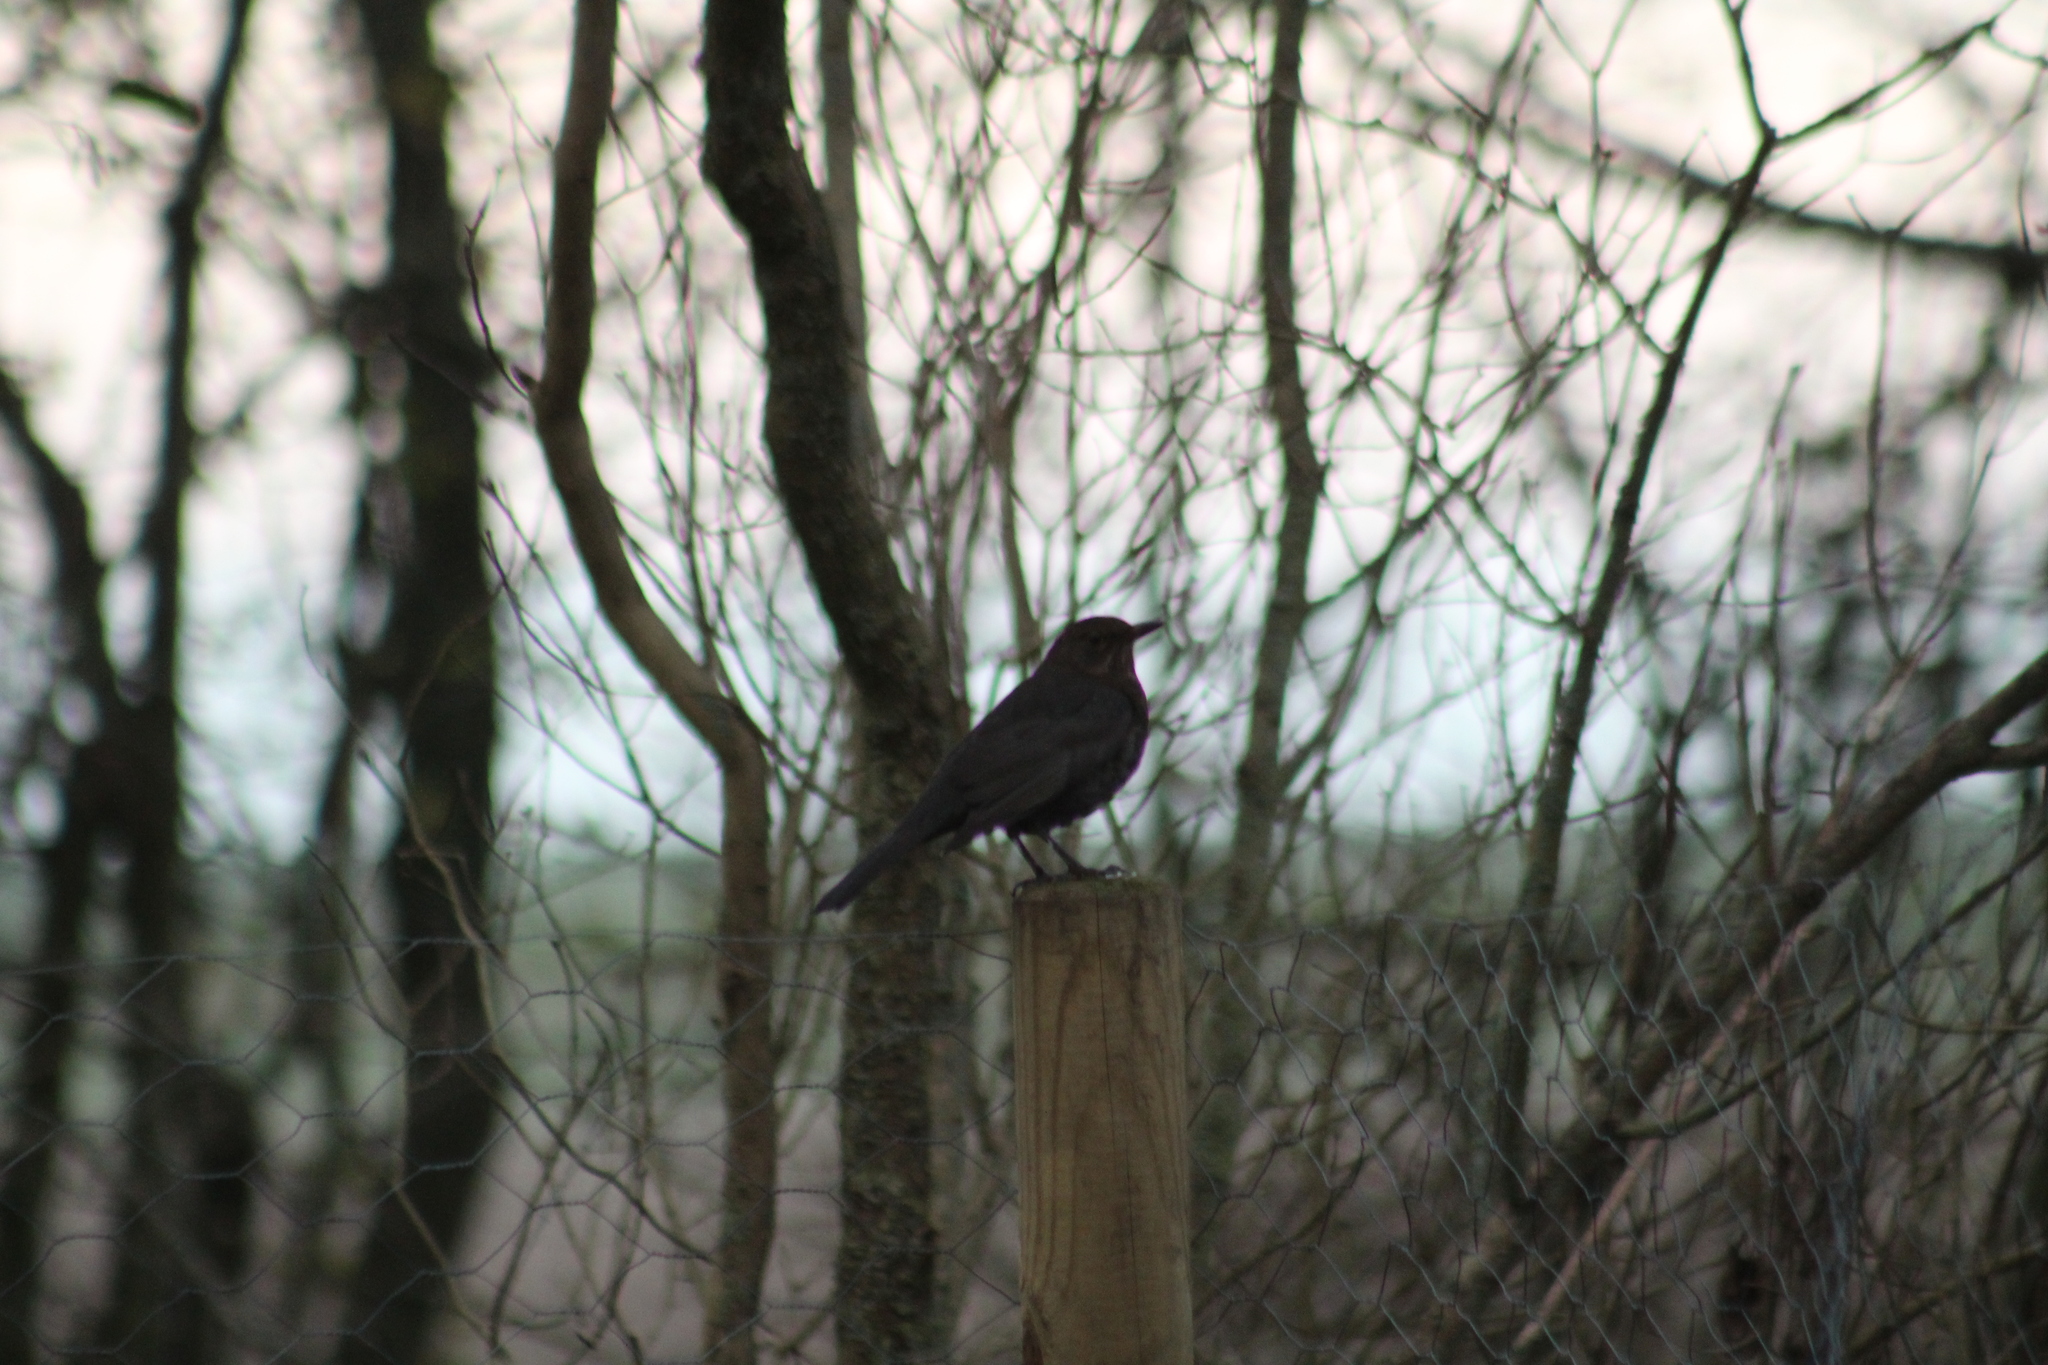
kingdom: Animalia
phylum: Chordata
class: Aves
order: Passeriformes
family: Turdidae
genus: Turdus
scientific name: Turdus merula
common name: Common blackbird
